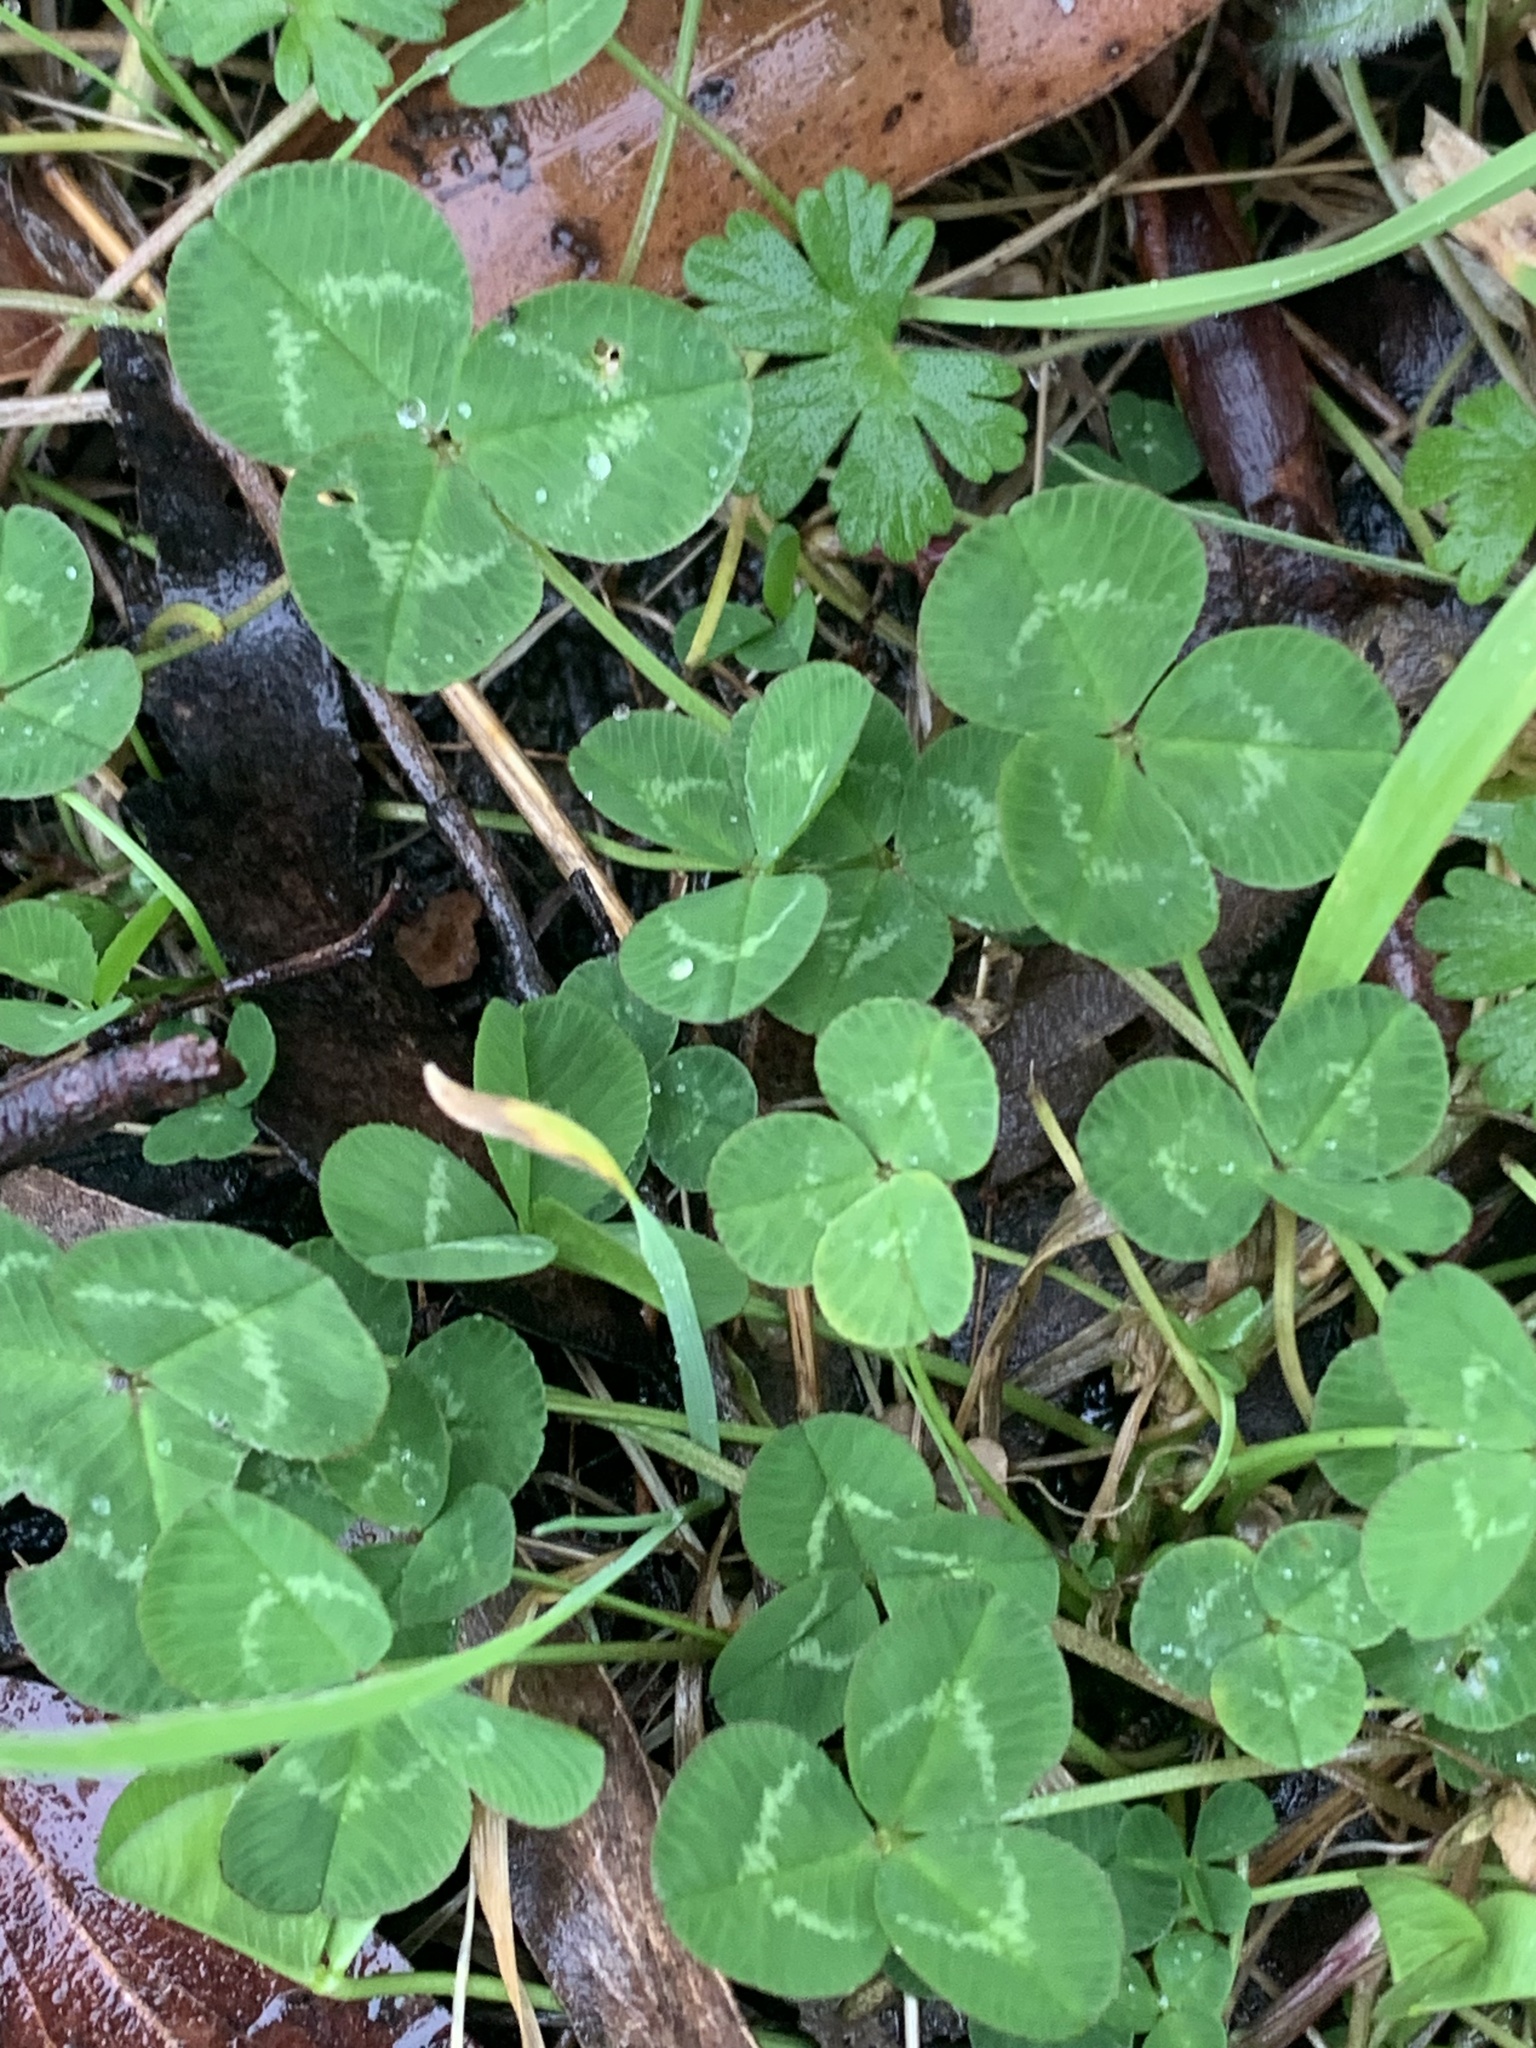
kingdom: Plantae
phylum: Tracheophyta
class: Magnoliopsida
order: Fabales
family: Fabaceae
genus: Trifolium
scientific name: Trifolium repens
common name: White clover
